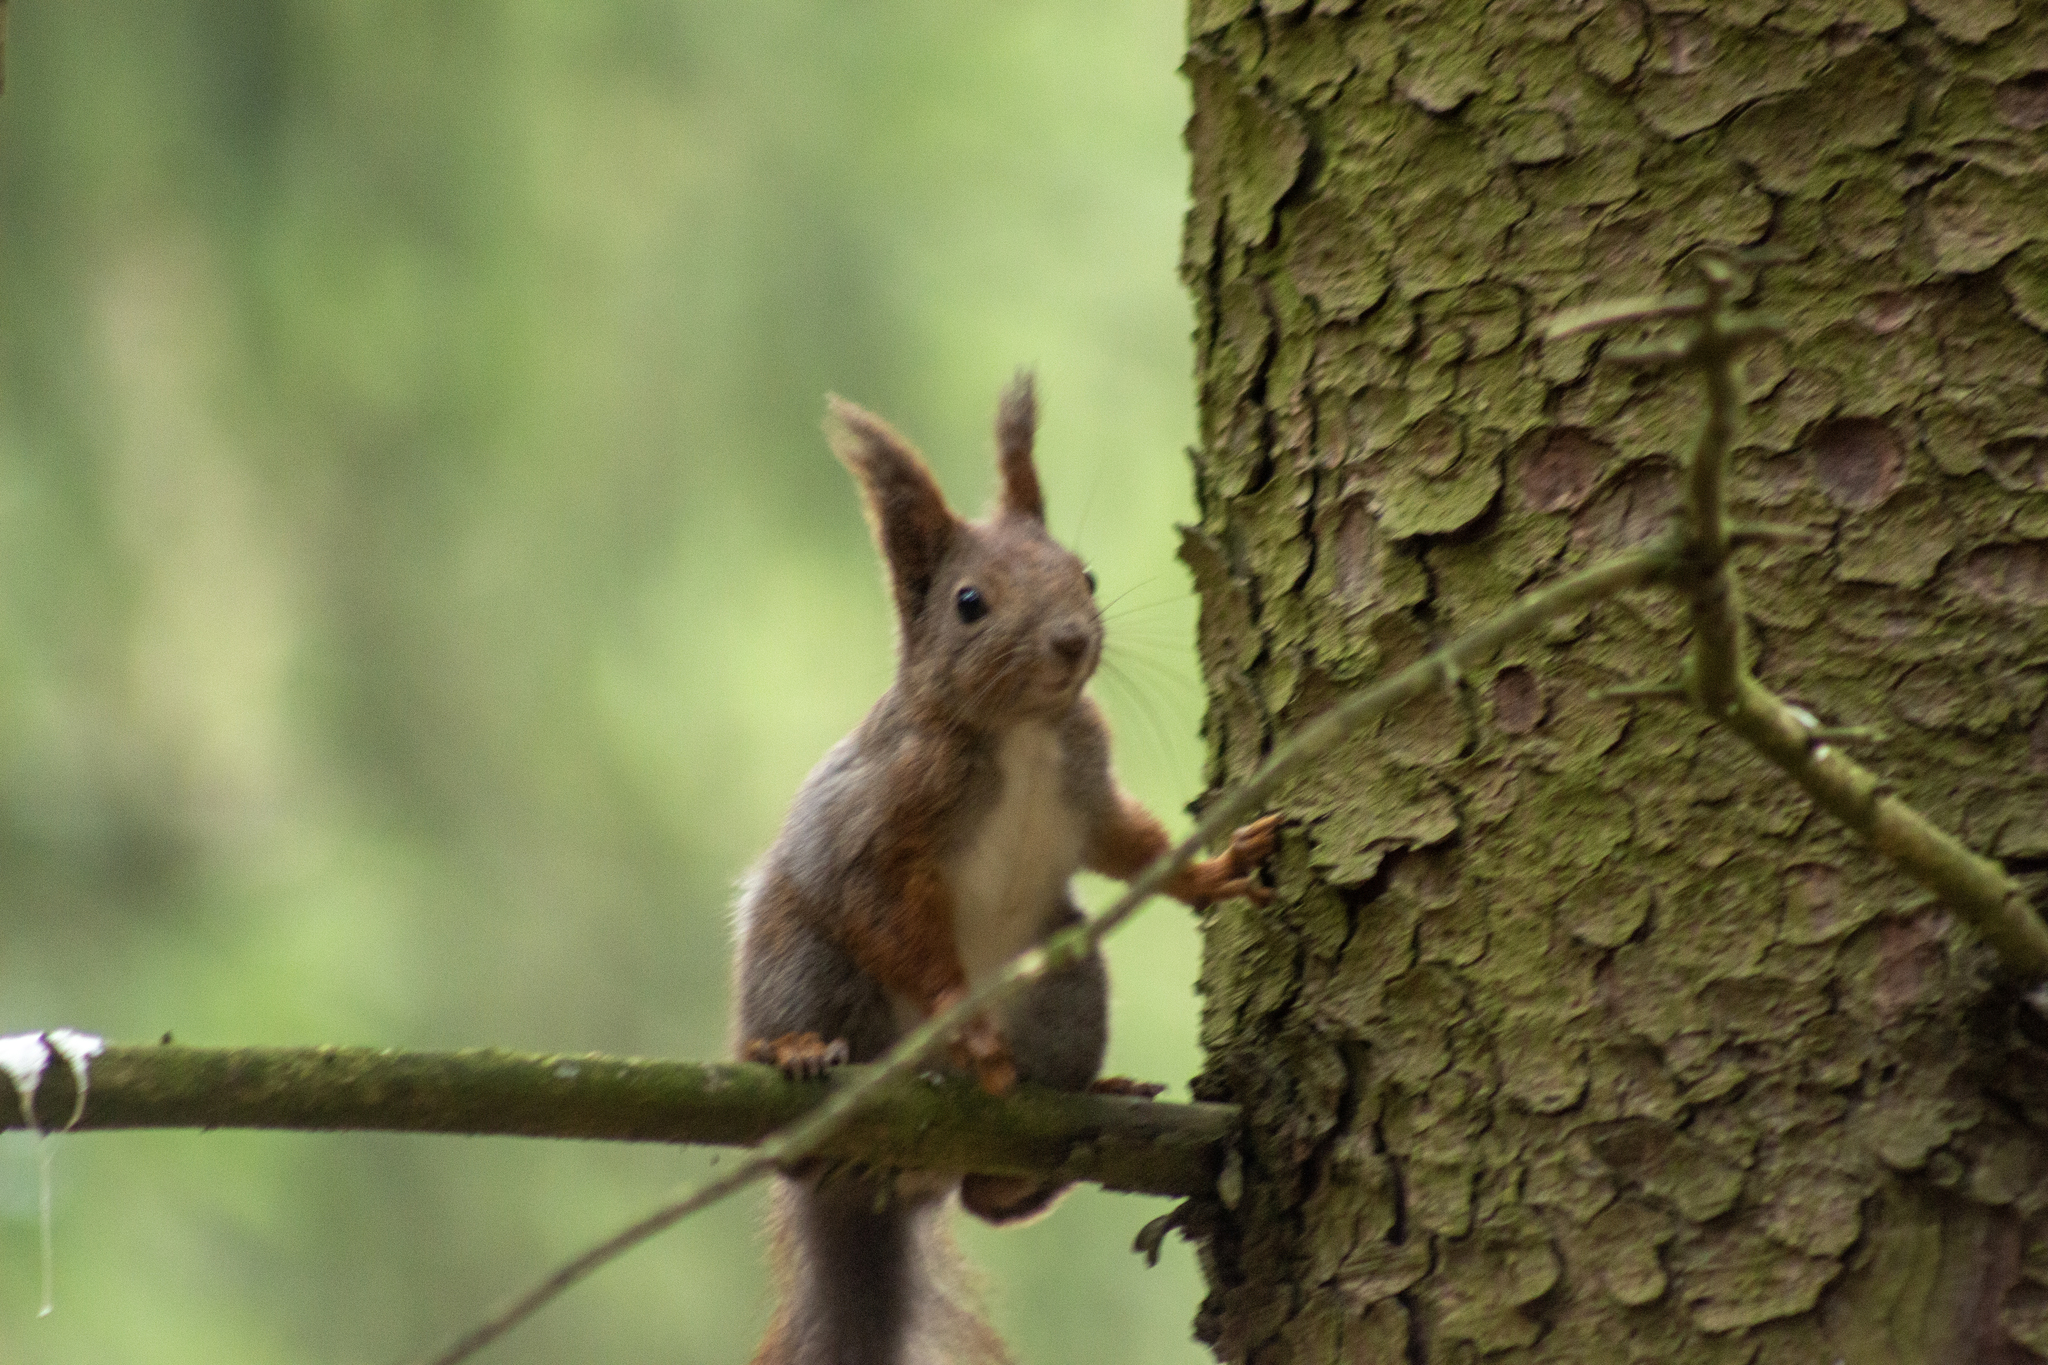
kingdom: Animalia
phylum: Chordata
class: Mammalia
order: Rodentia
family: Sciuridae
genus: Sciurus
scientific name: Sciurus vulgaris
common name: Eurasian red squirrel
